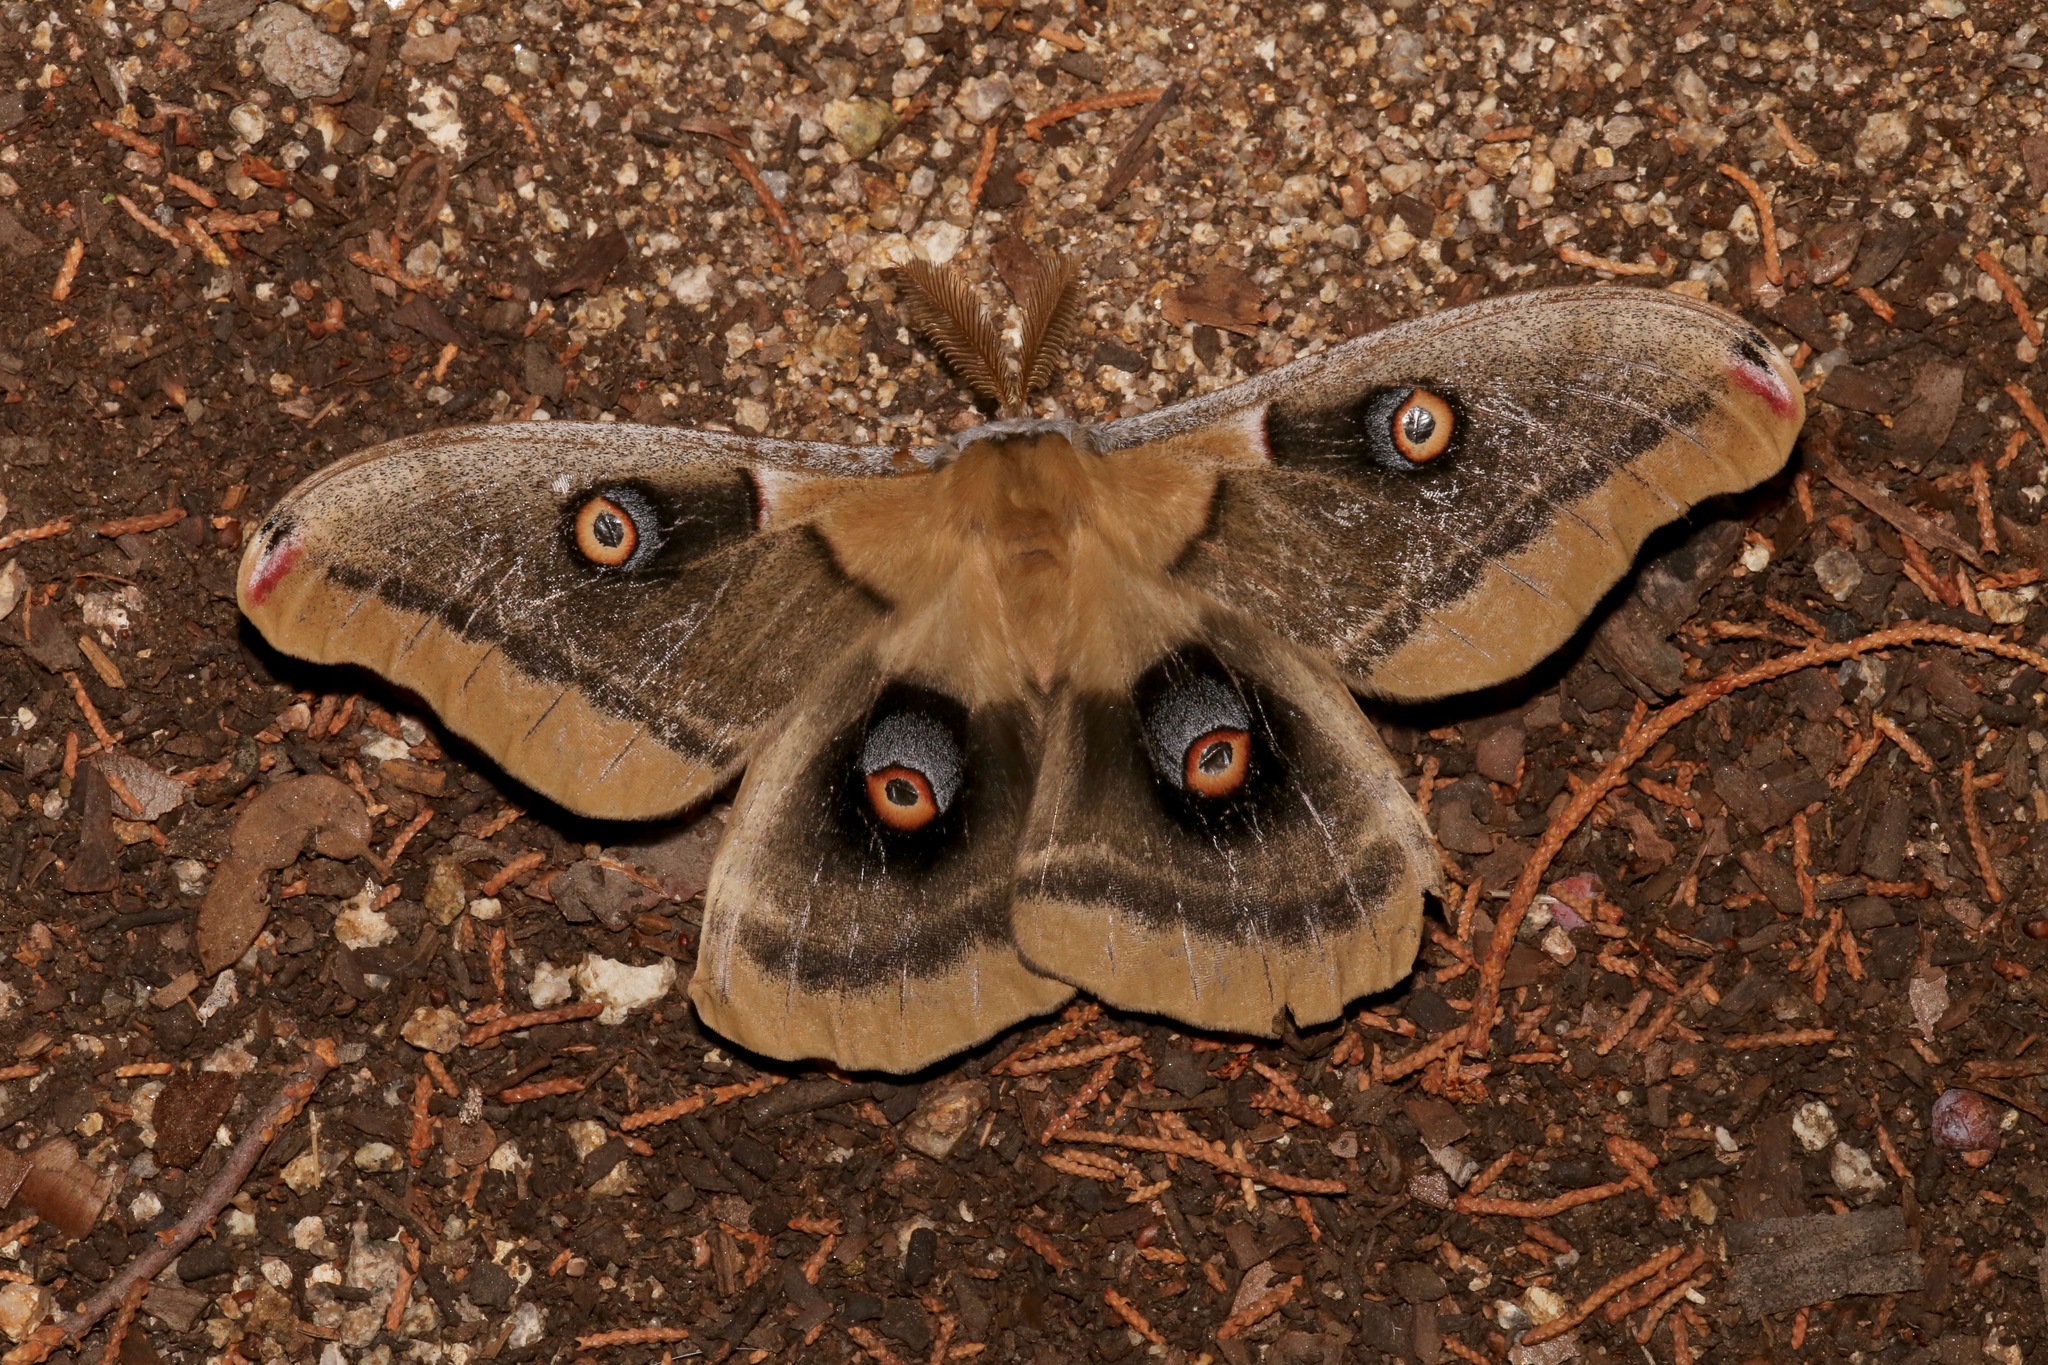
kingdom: Animalia
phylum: Arthropoda
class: Insecta
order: Lepidoptera
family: Saturniidae
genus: Antheraea
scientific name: Antheraea oculea
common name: Arizona polyphemus moth
